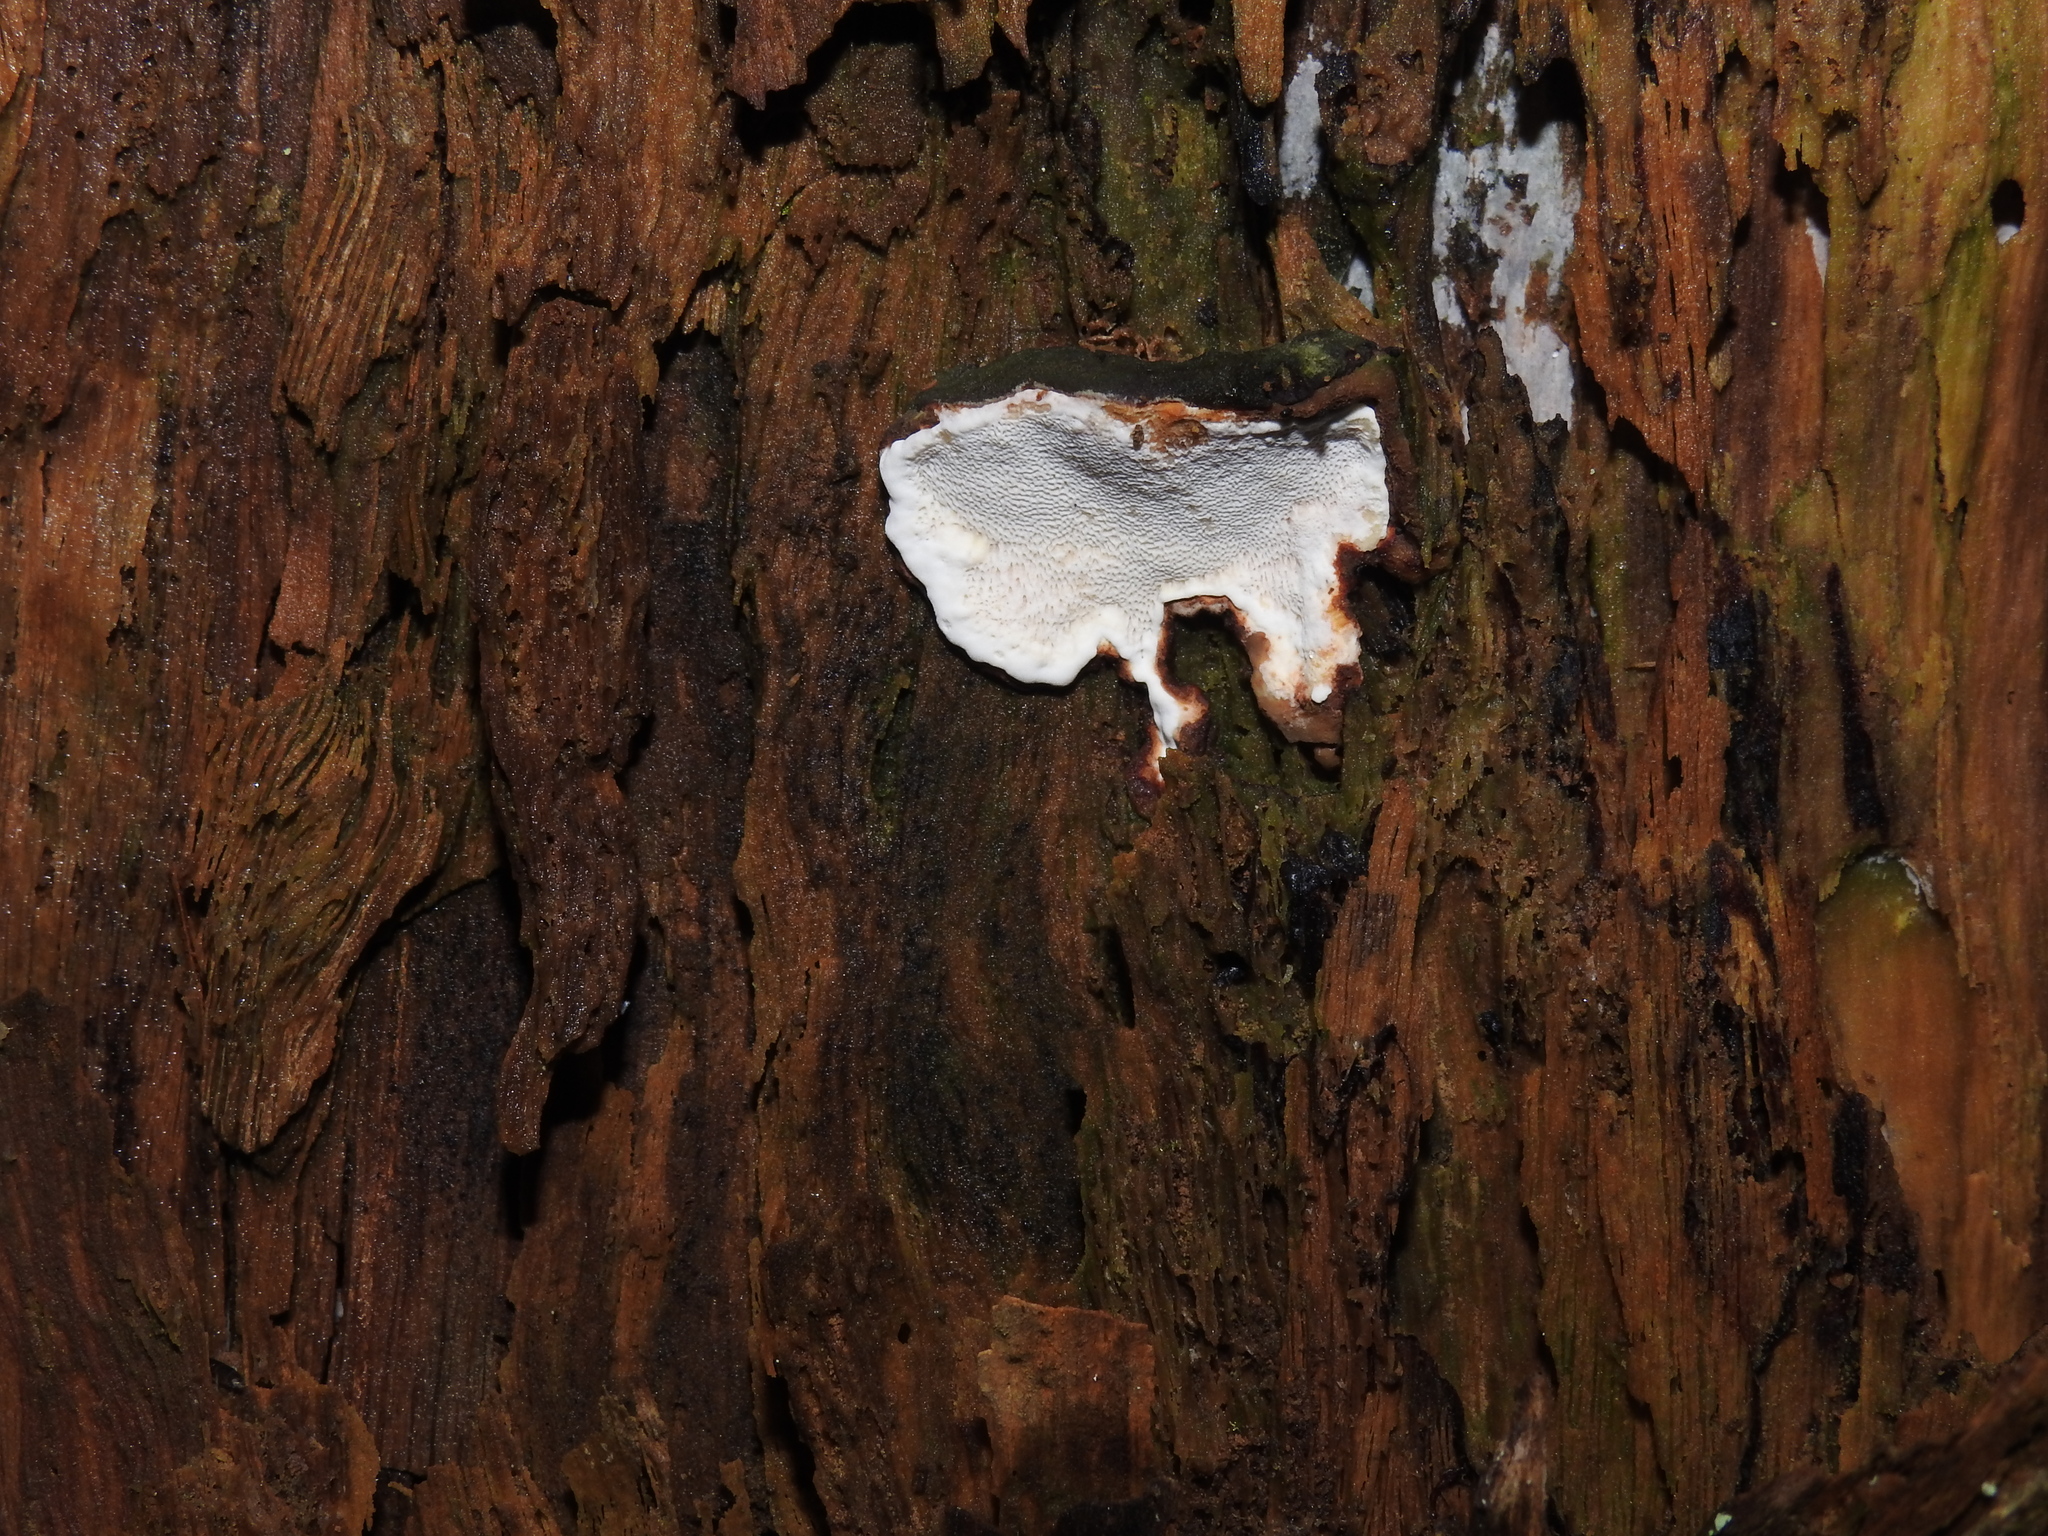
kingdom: Fungi
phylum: Basidiomycota
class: Agaricomycetes
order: Russulales
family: Bondarzewiaceae
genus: Heterobasidion
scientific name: Heterobasidion
